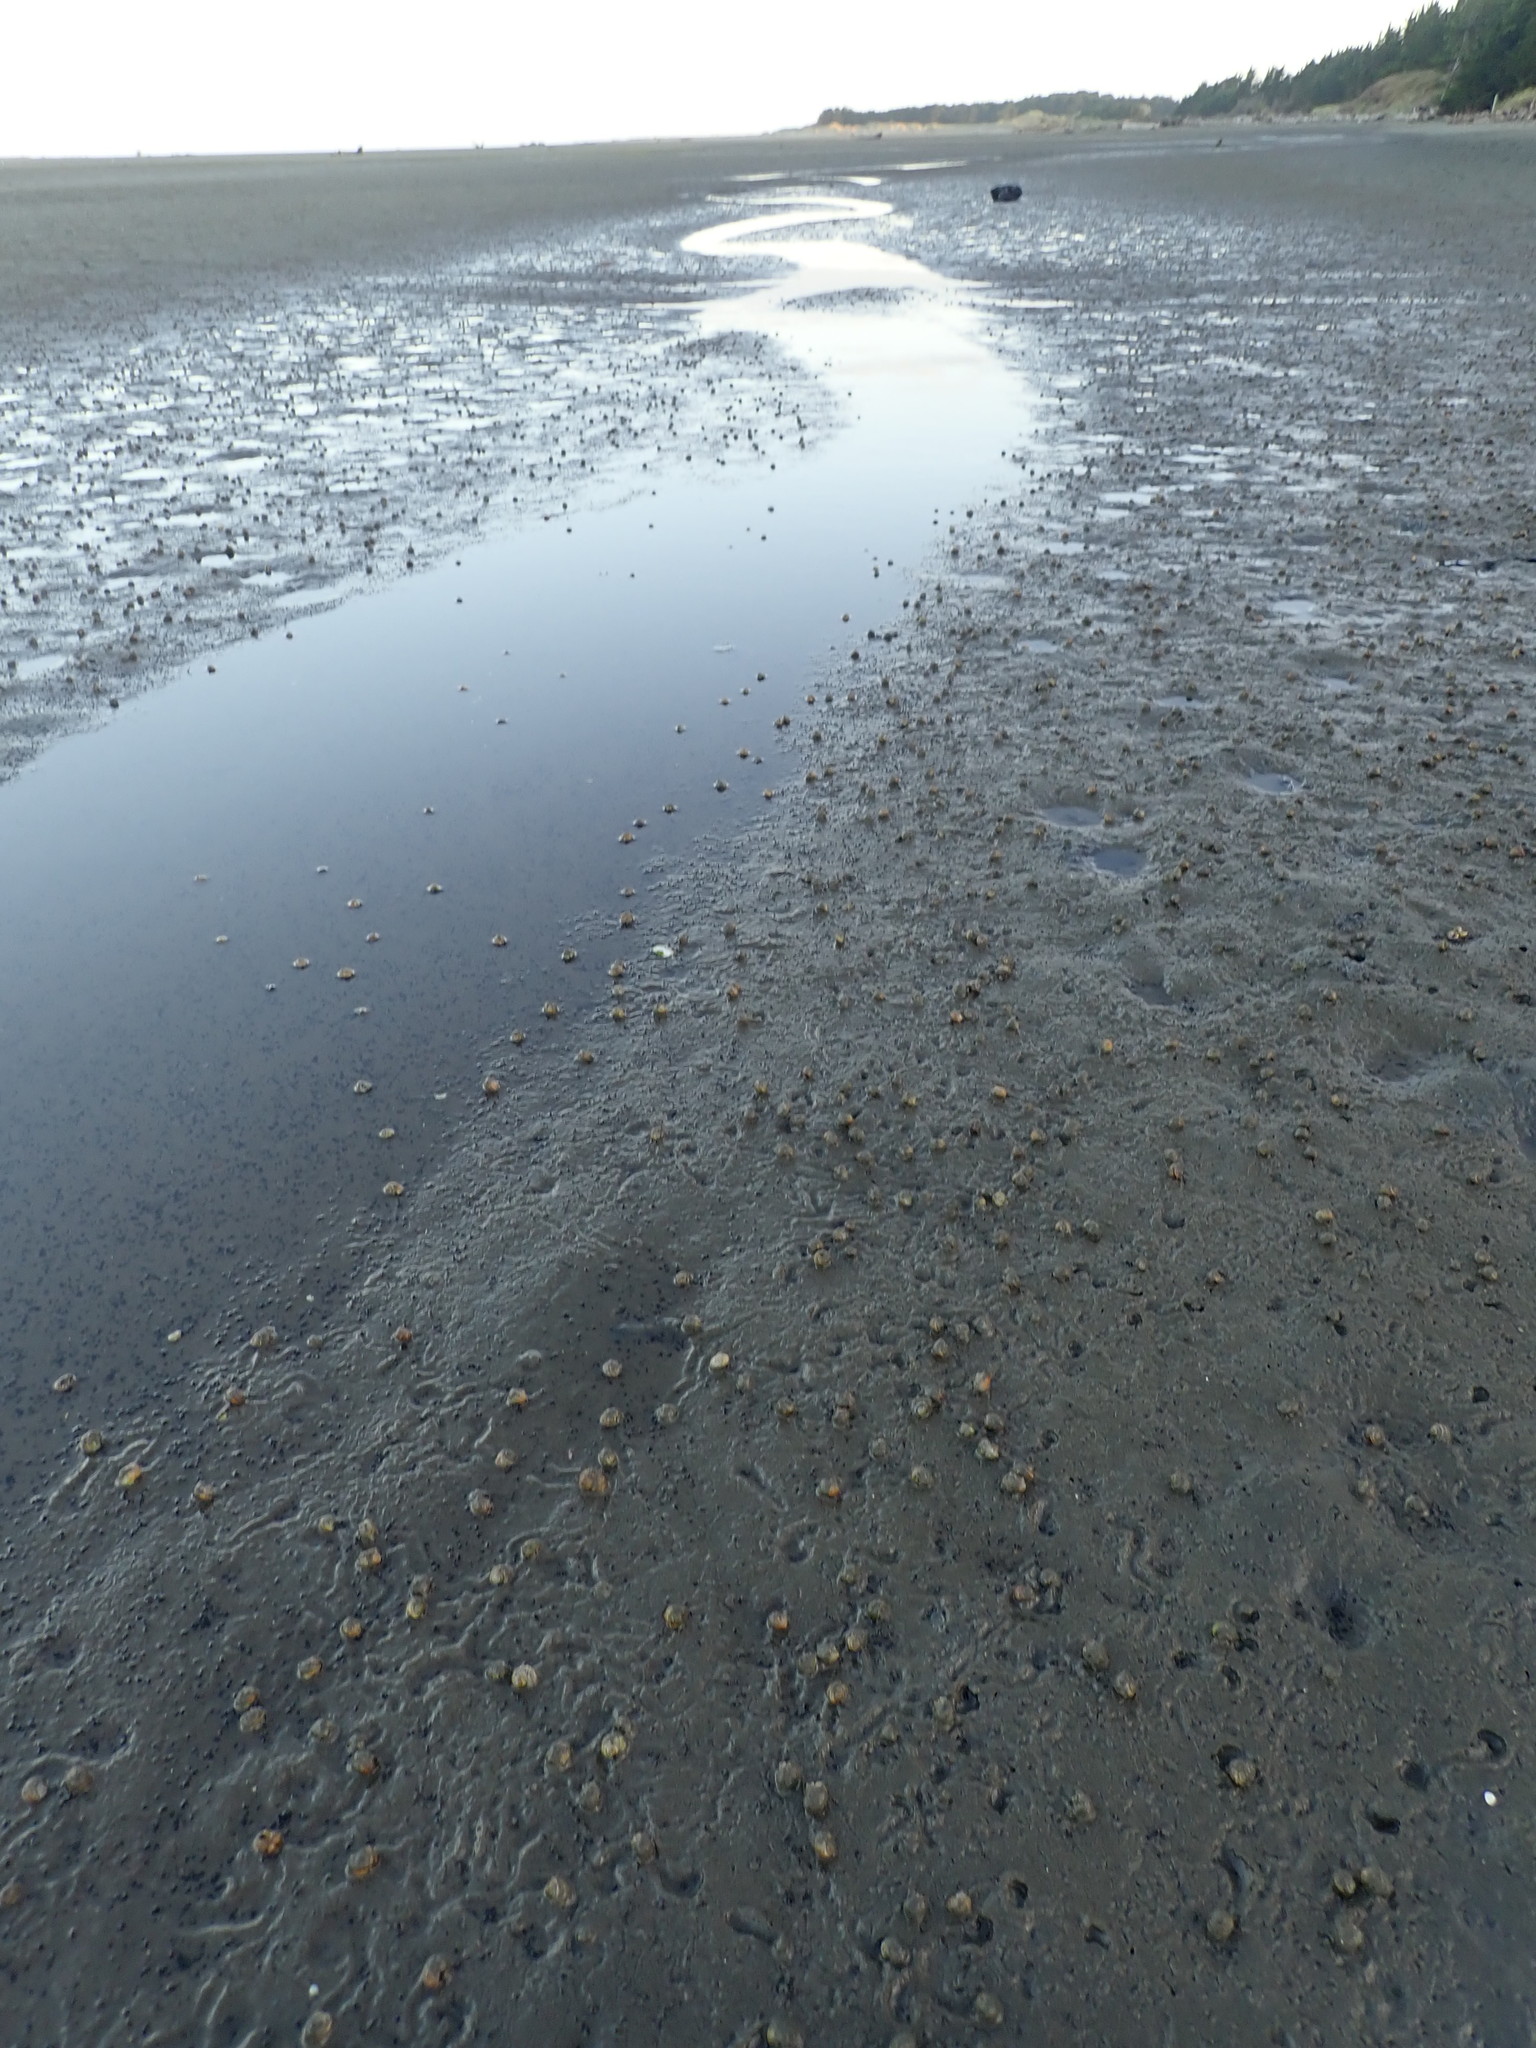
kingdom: Animalia
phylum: Mollusca
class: Gastropoda
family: Amphibolidae
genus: Amphibola
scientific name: Amphibola crenata
